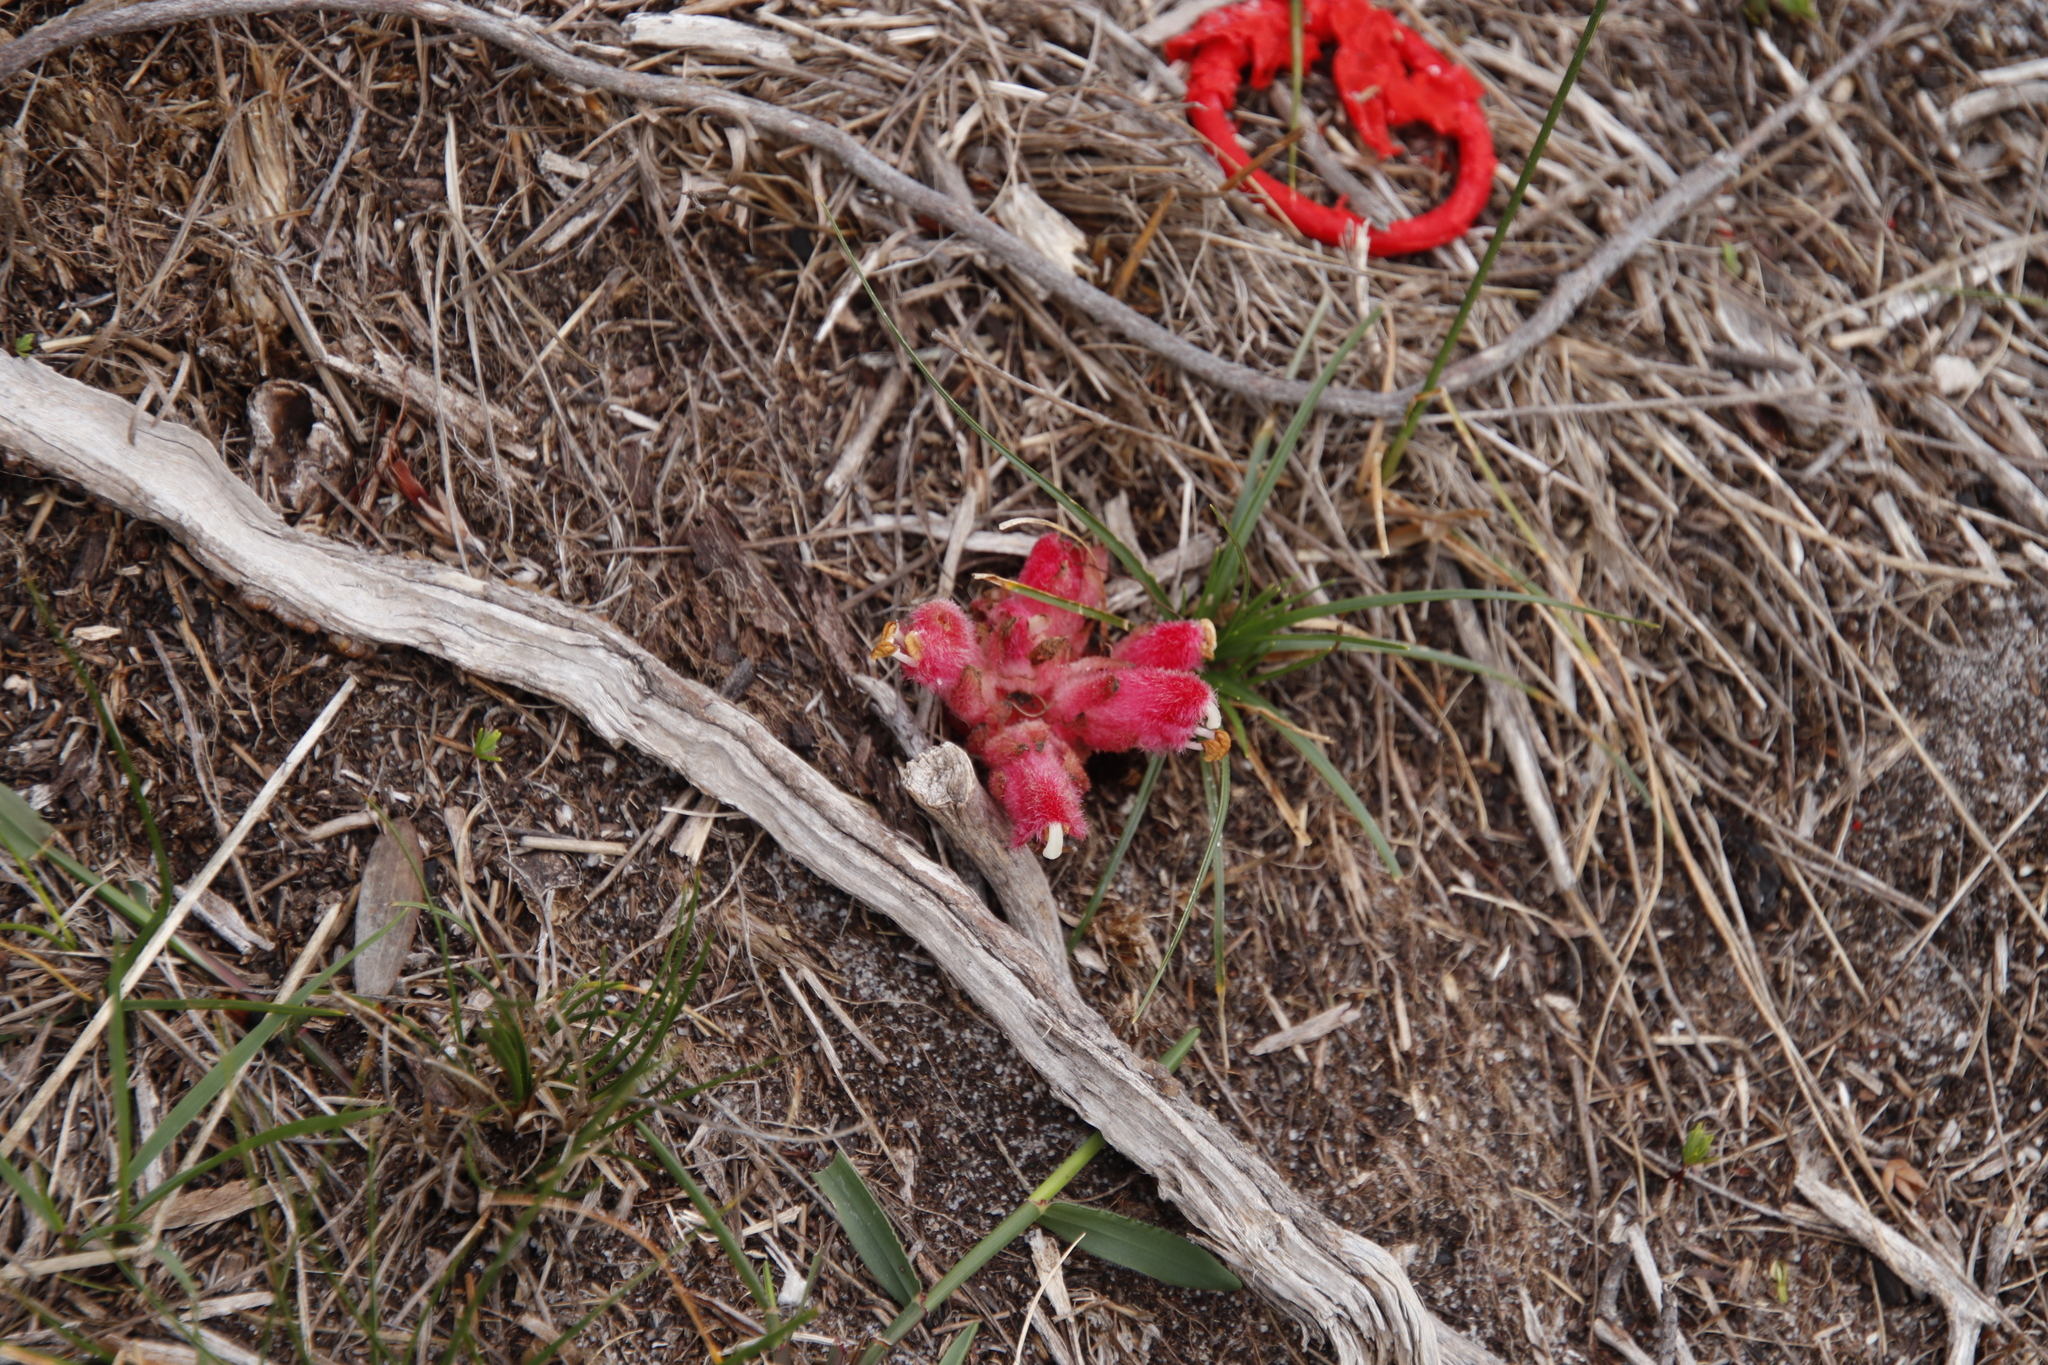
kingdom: Plantae
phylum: Tracheophyta
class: Magnoliopsida
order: Lamiales
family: Orobanchaceae
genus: Hyobanche
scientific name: Hyobanche sanguinea
